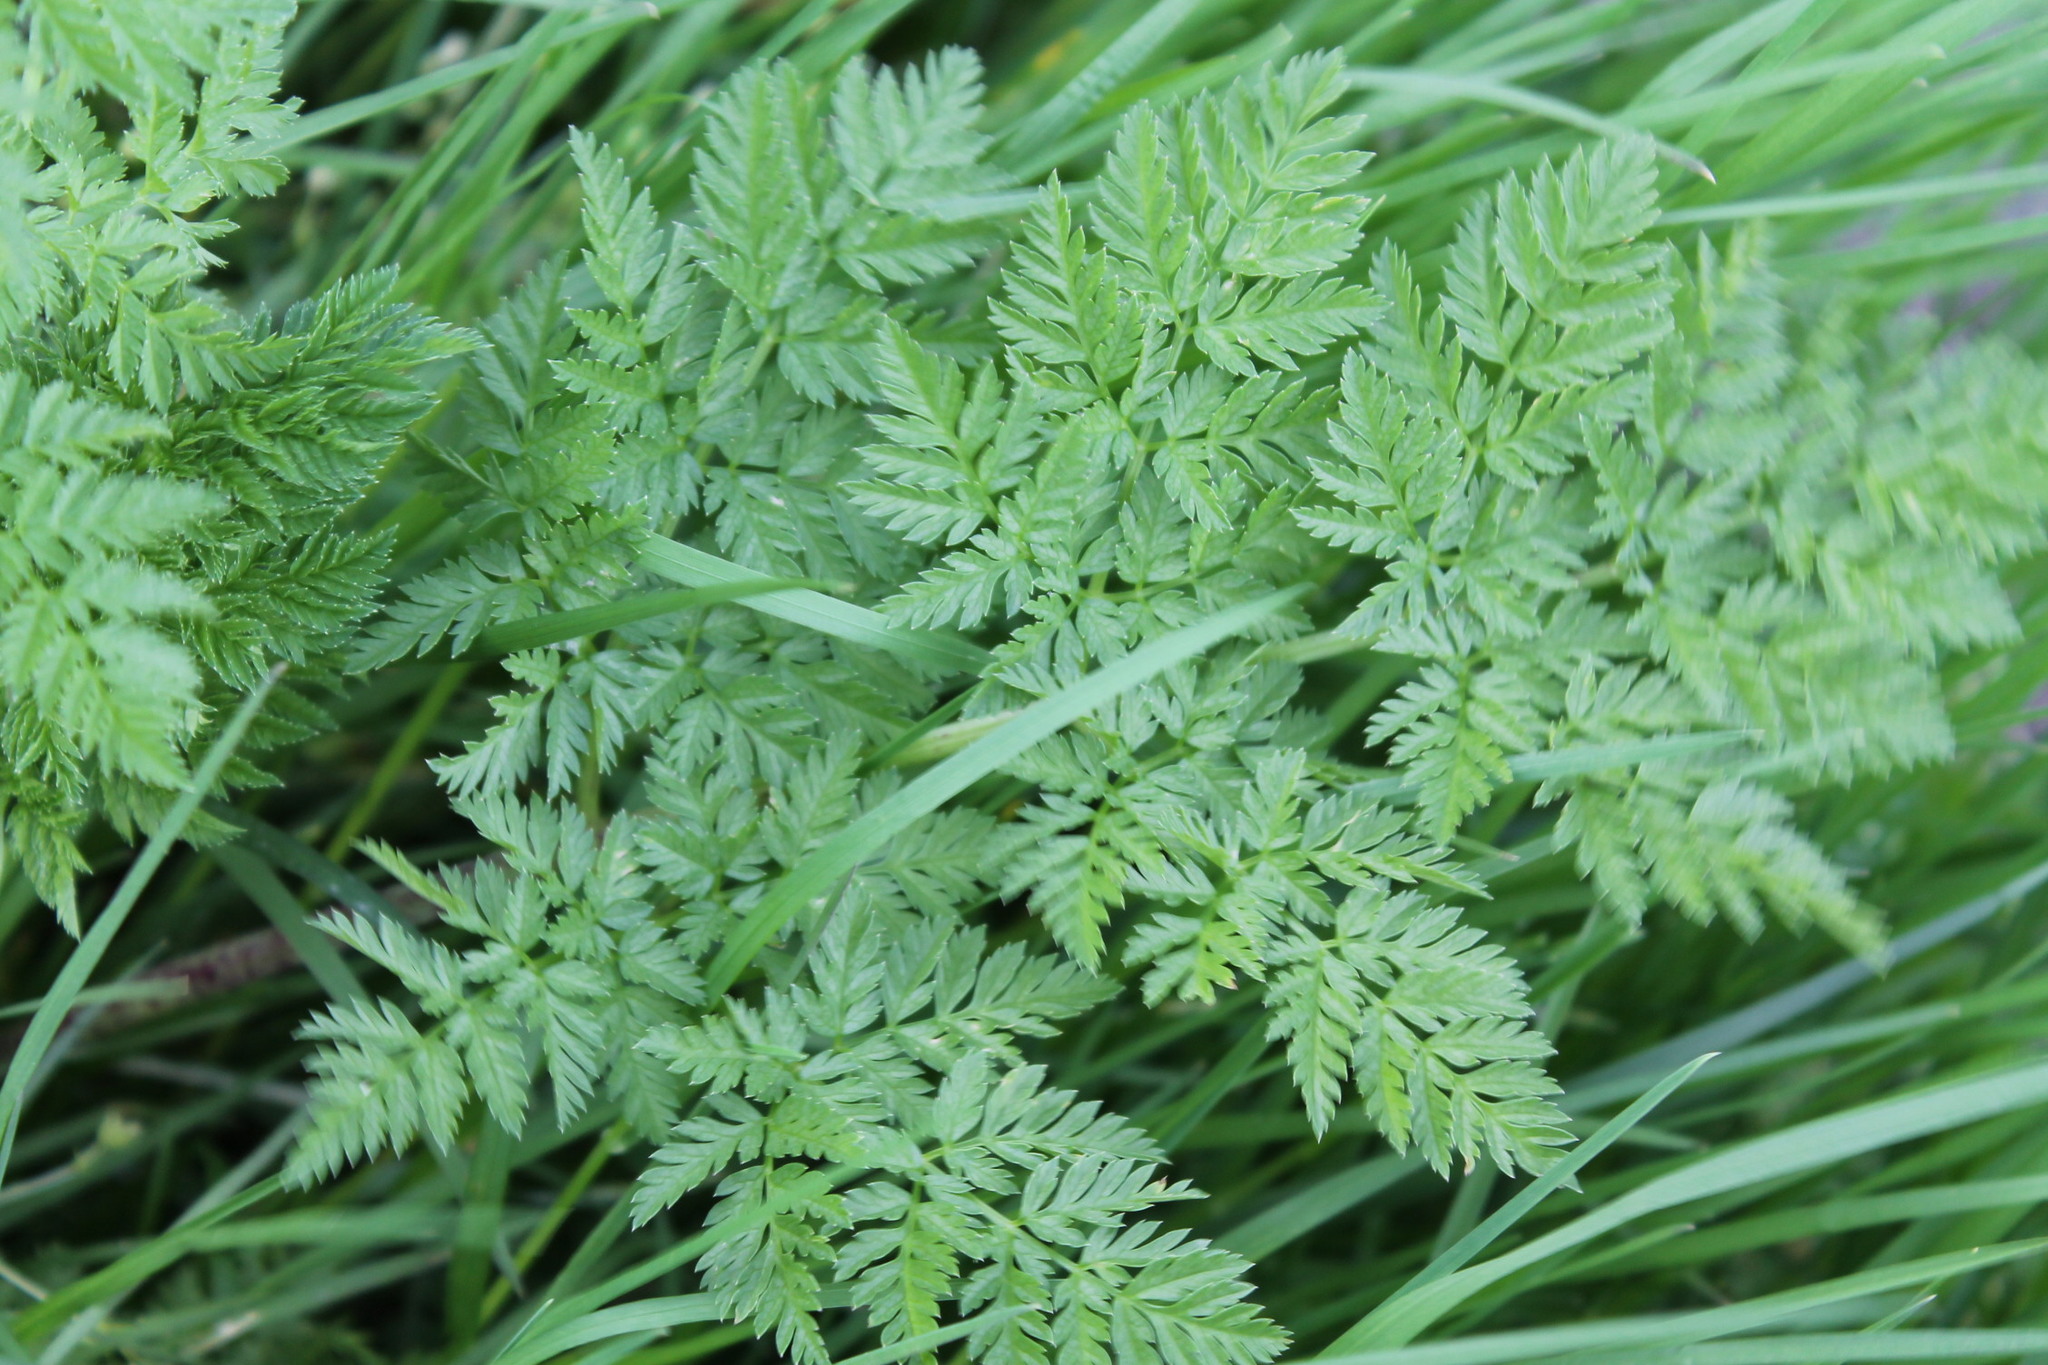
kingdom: Plantae
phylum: Tracheophyta
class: Magnoliopsida
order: Apiales
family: Apiaceae
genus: Conium
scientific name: Conium maculatum
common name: Hemlock
